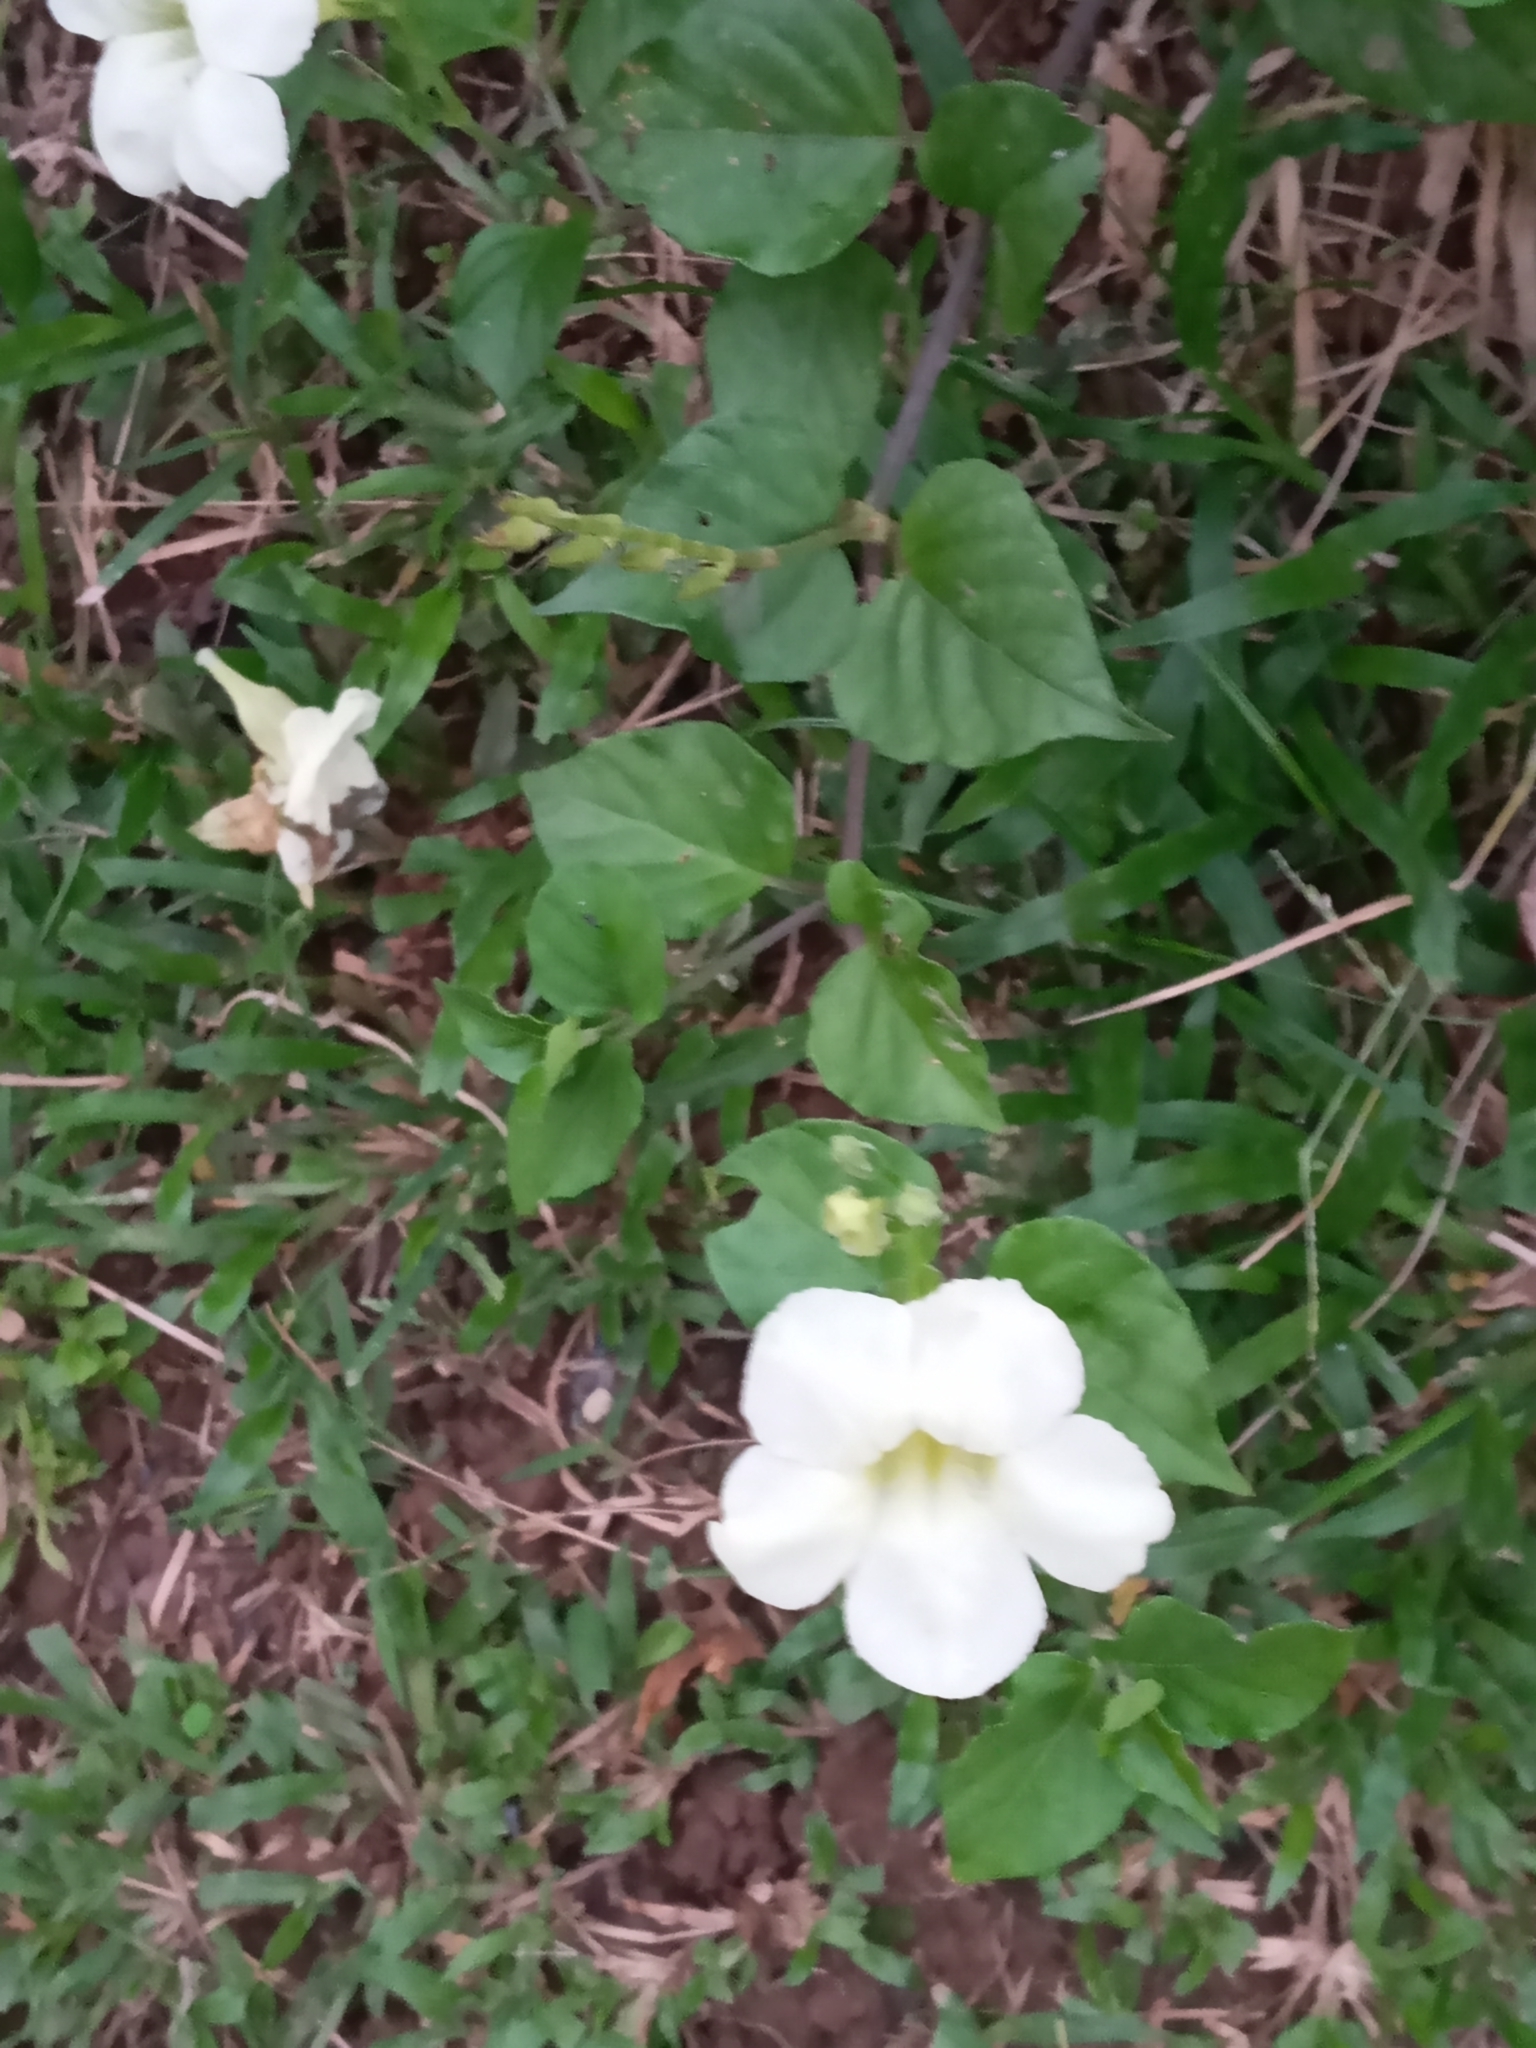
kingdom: Plantae
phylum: Tracheophyta
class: Magnoliopsida
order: Lamiales
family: Acanthaceae
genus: Asystasia
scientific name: Asystasia gangetica
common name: Chinese violet
